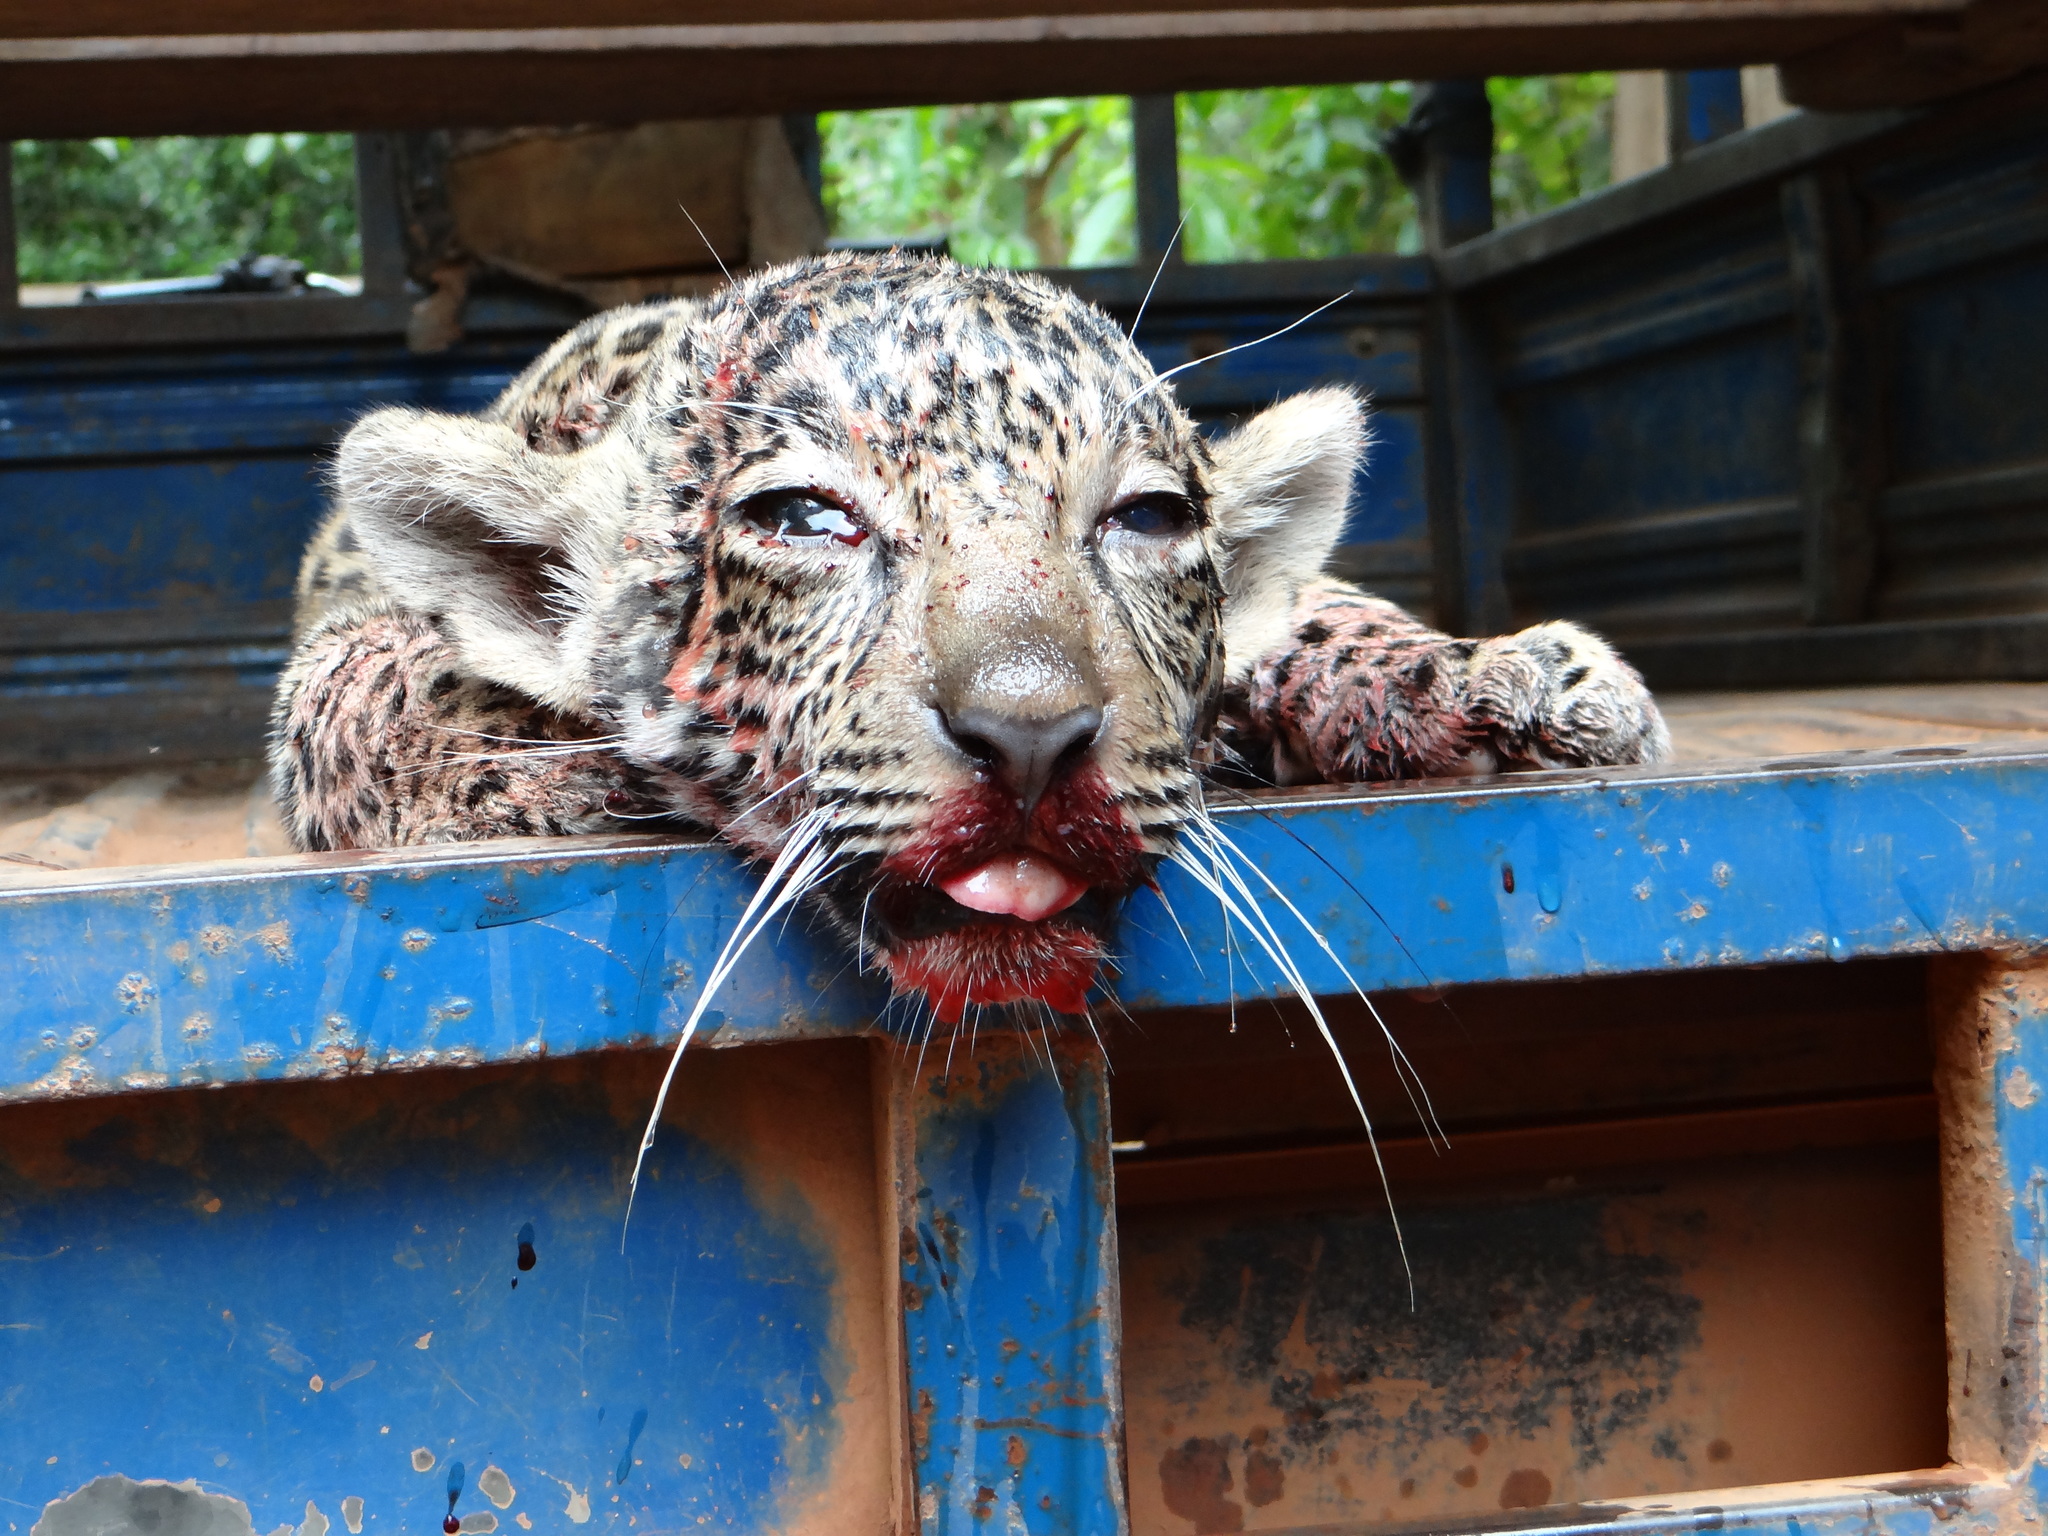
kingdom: Animalia
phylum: Chordata
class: Mammalia
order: Carnivora
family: Felidae
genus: Panthera
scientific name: Panthera onca
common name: Jaguar
